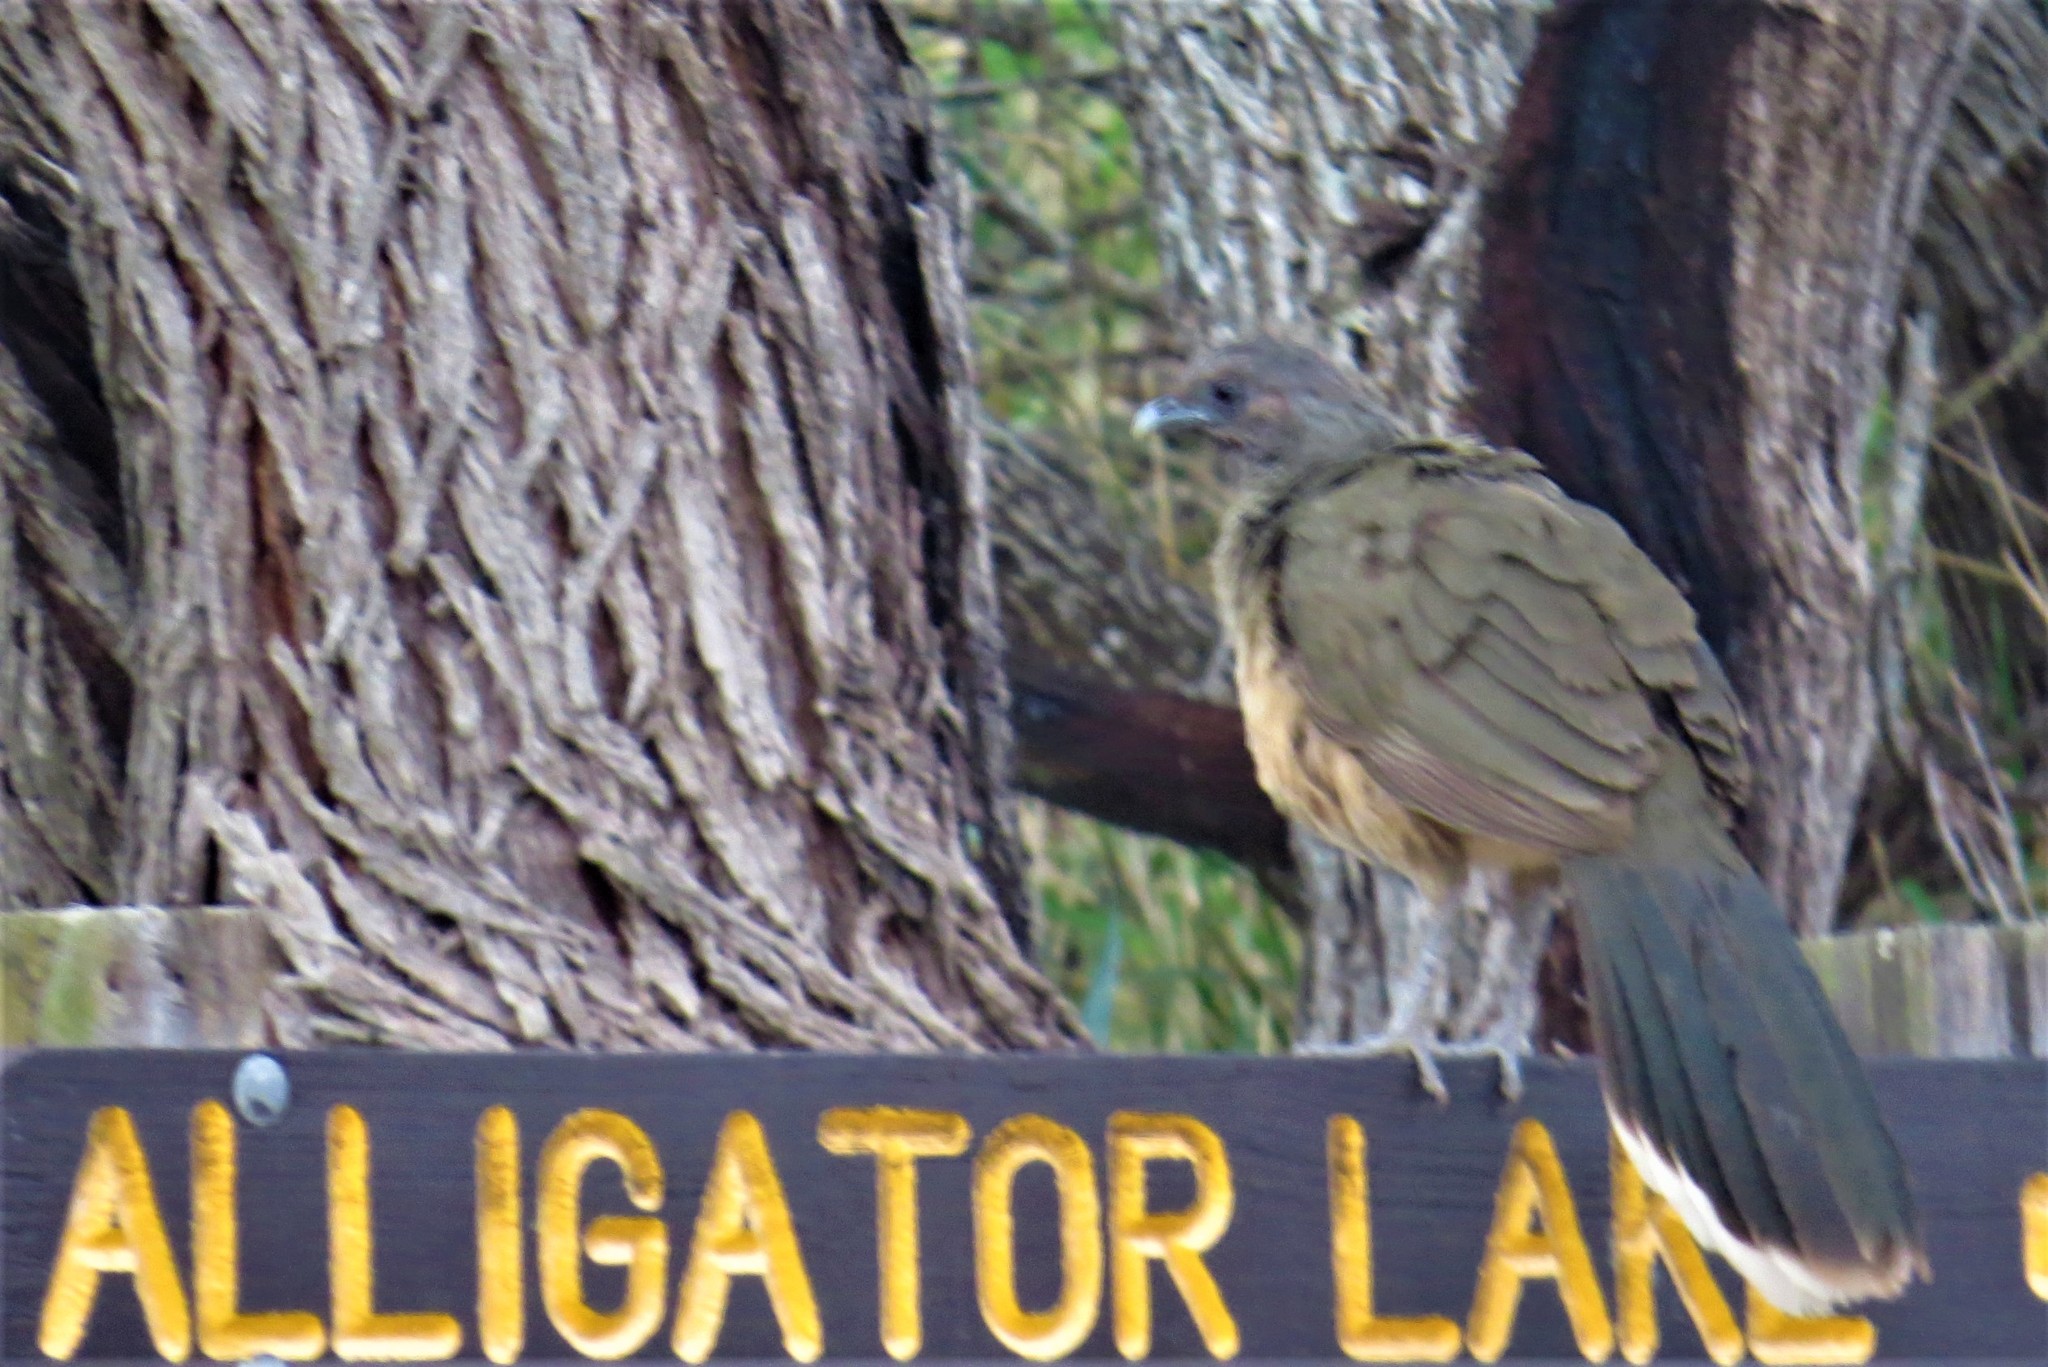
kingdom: Animalia
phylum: Chordata
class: Aves
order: Galliformes
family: Cracidae
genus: Ortalis
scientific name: Ortalis vetula
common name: Plain chachalaca
